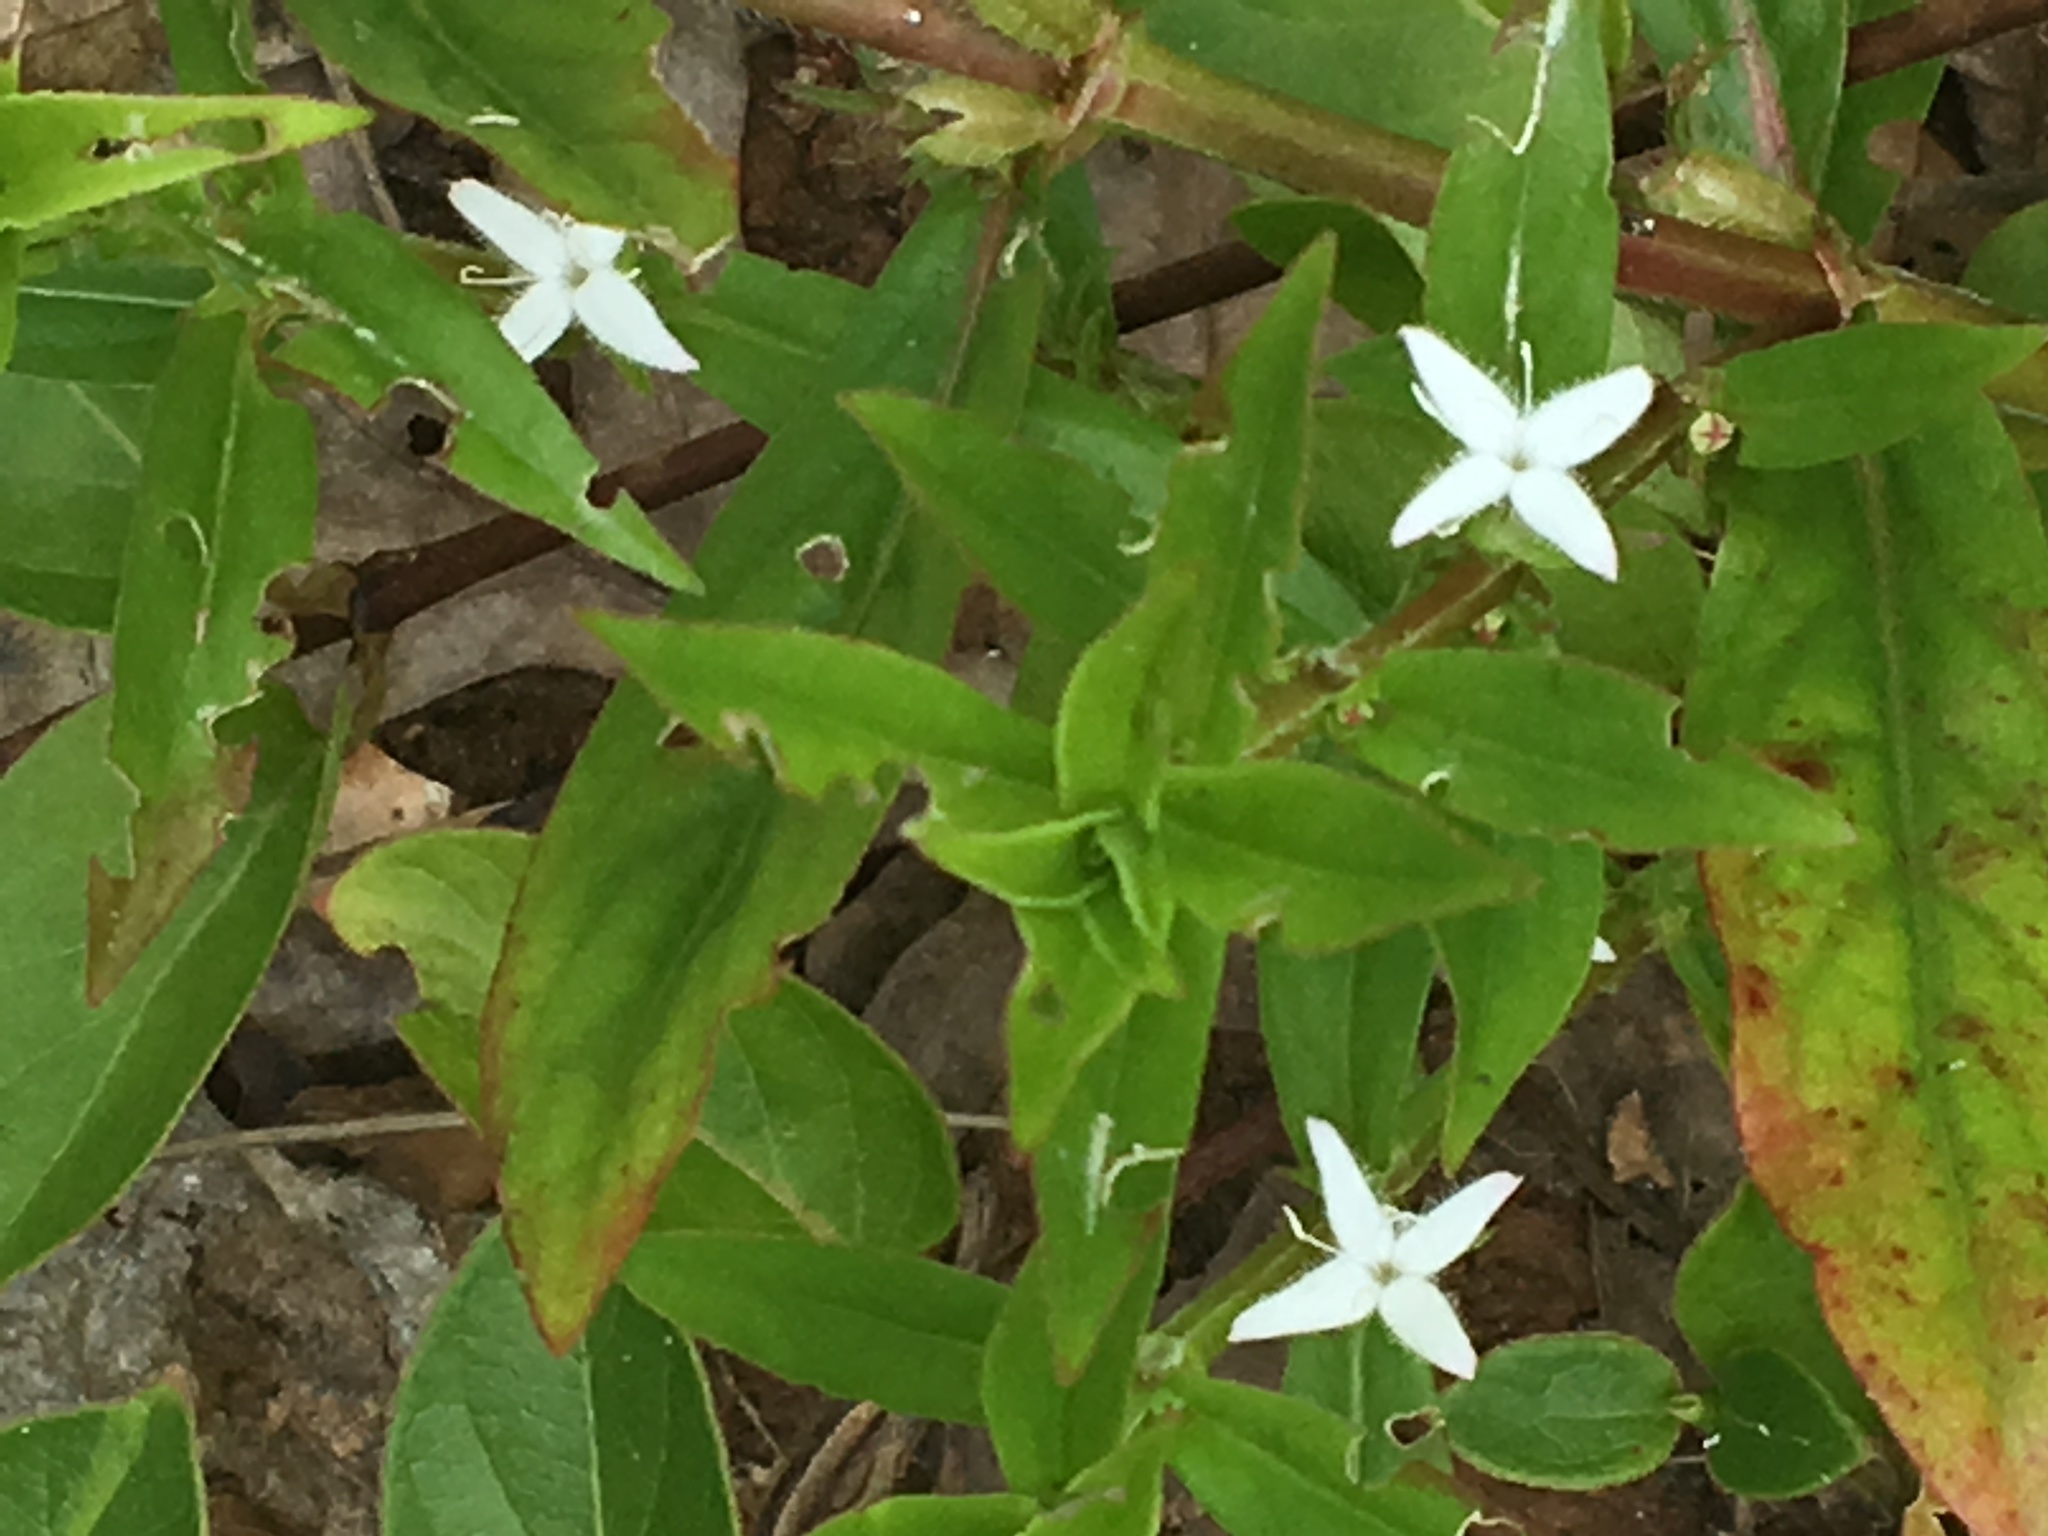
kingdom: Plantae
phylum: Tracheophyta
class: Magnoliopsida
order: Gentianales
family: Rubiaceae
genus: Diodia
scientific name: Diodia virginiana
